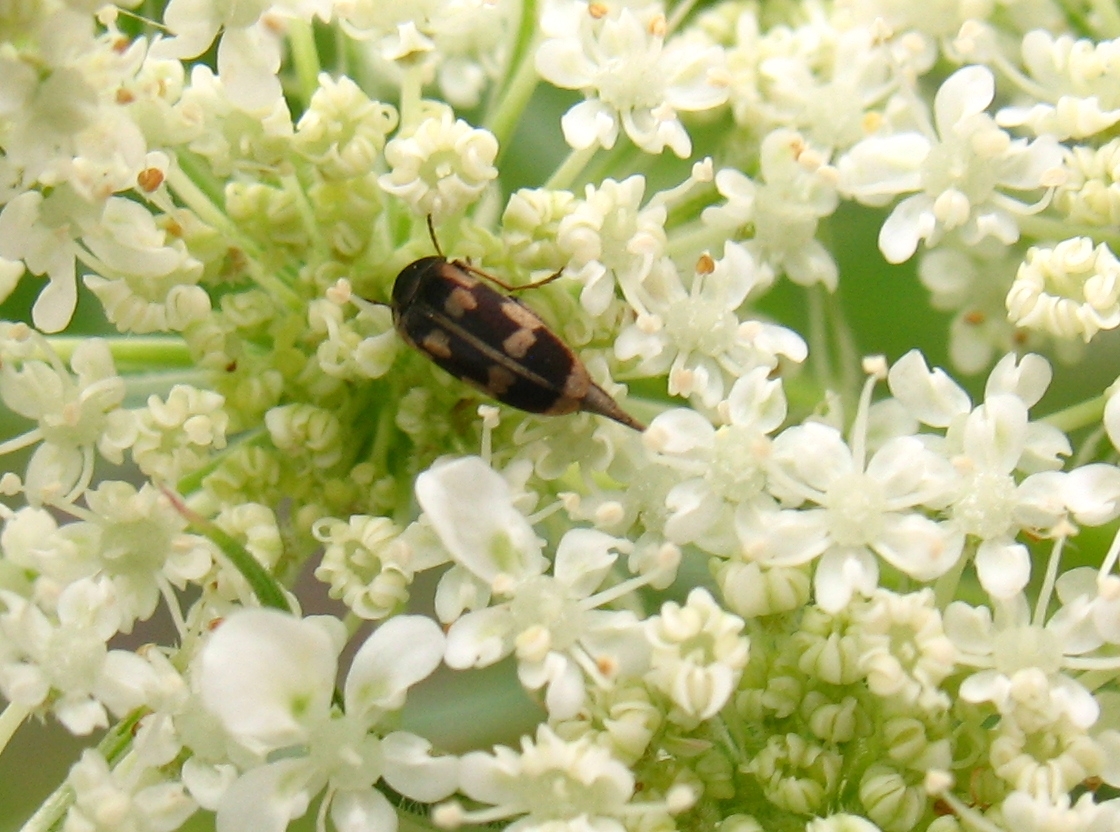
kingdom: Animalia
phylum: Arthropoda
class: Insecta
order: Coleoptera
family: Mordellidae
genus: Falsomordellistena
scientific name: Falsomordellistena pubescens
